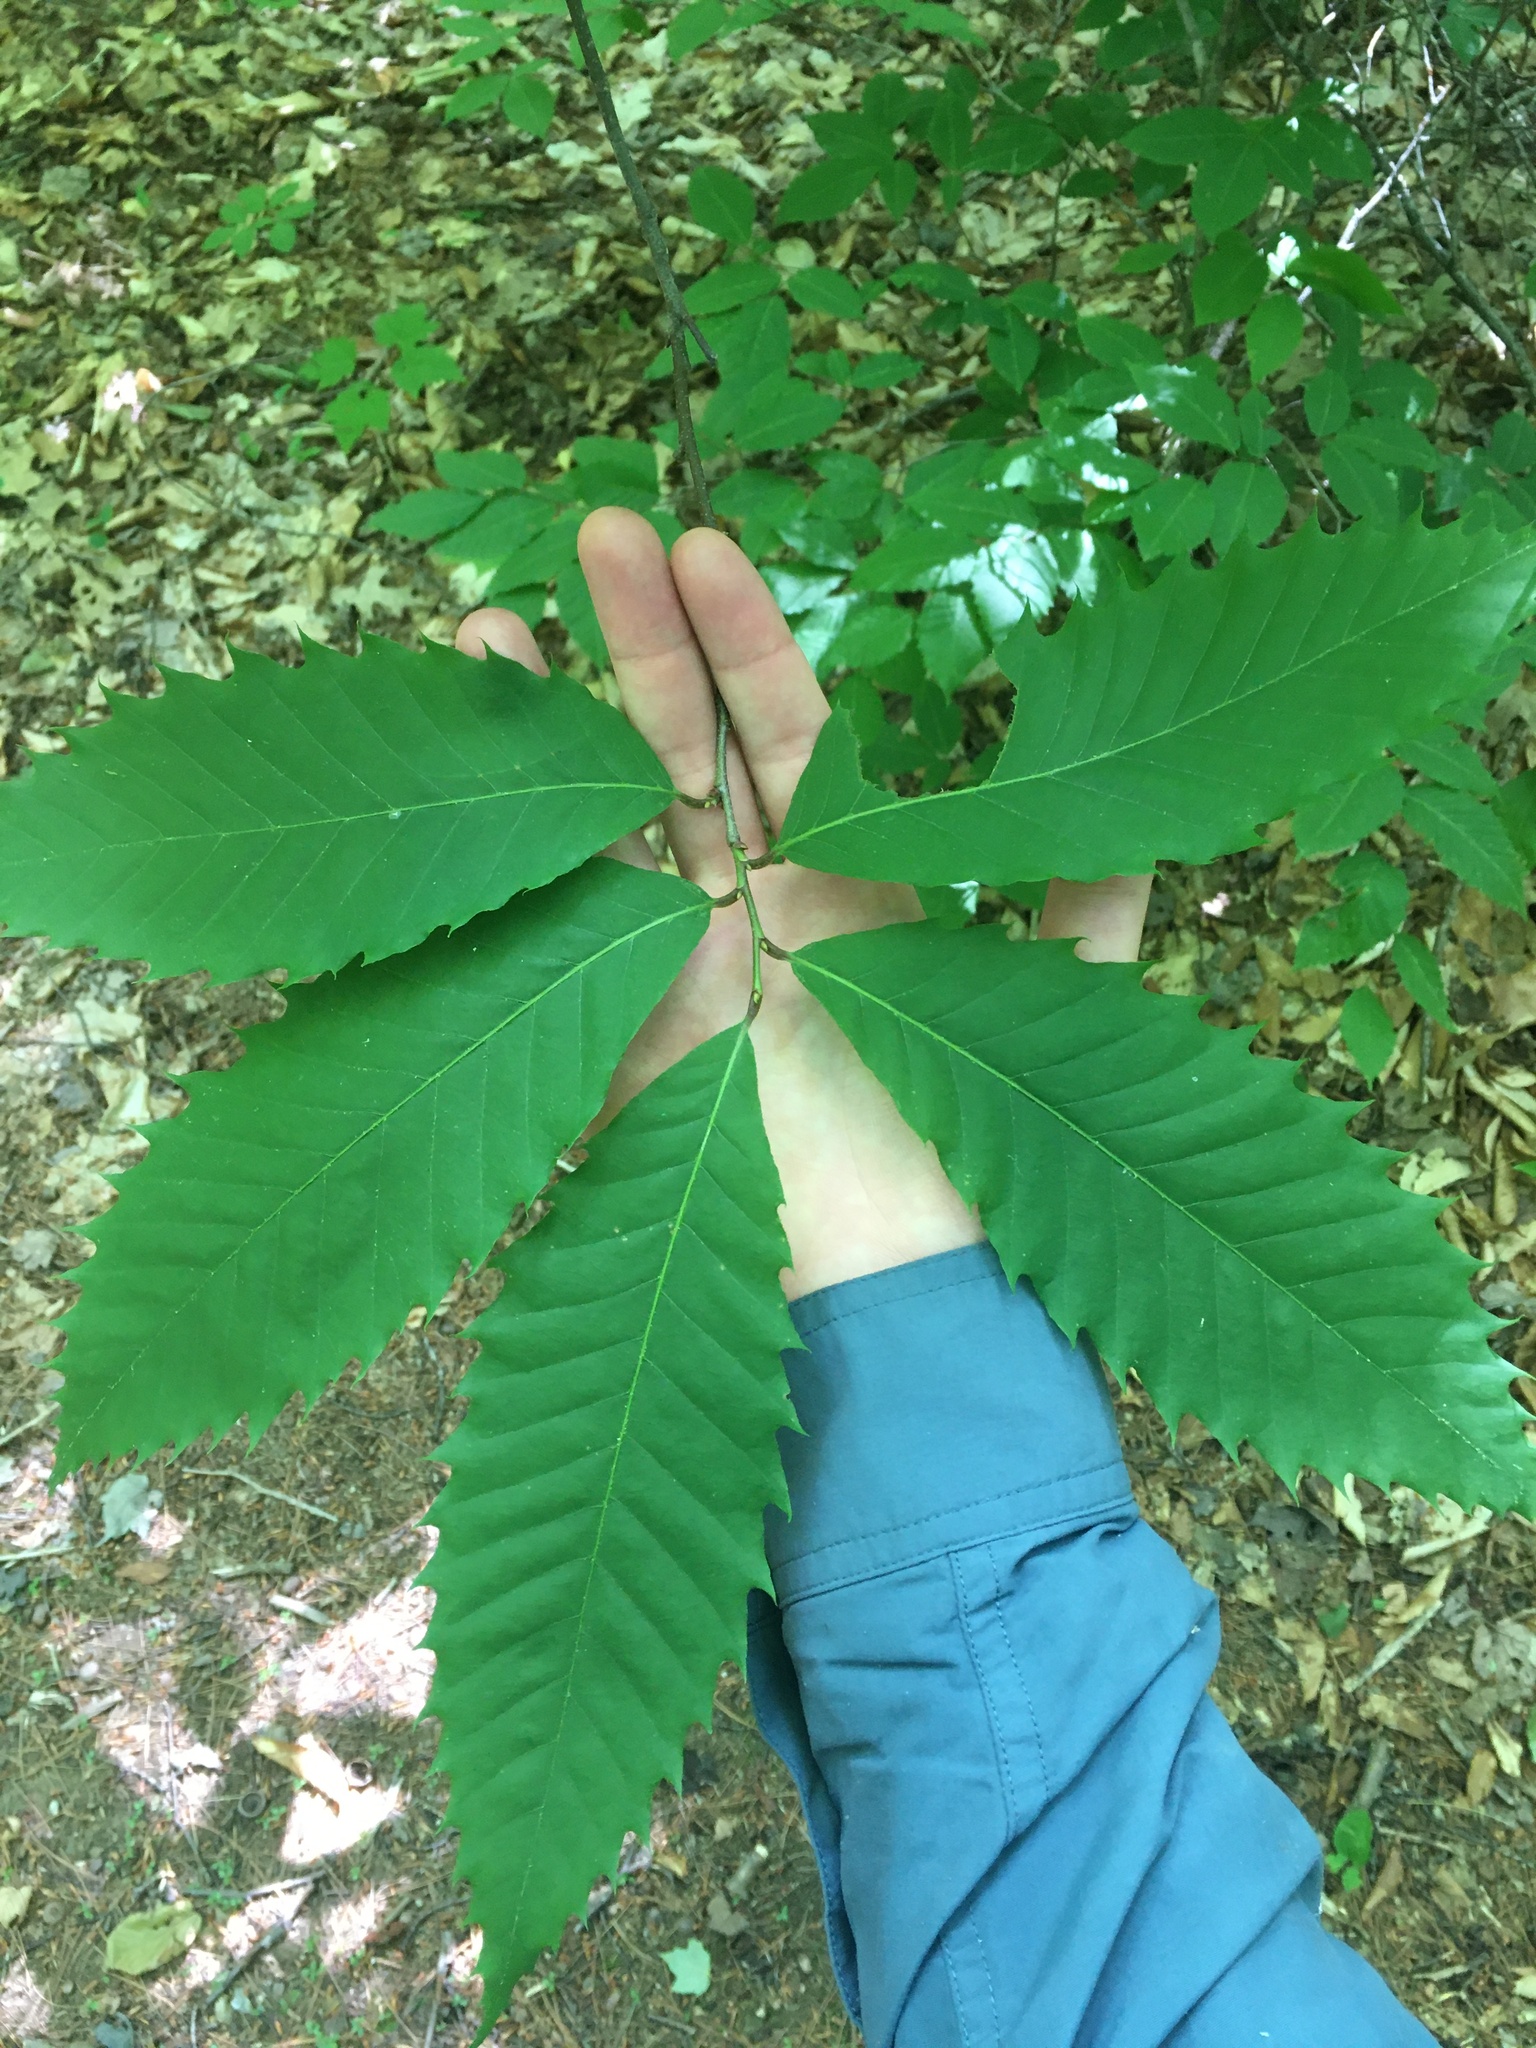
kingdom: Plantae
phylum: Tracheophyta
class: Magnoliopsida
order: Fagales
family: Fagaceae
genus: Castanea
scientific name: Castanea dentata
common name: American chestnut
